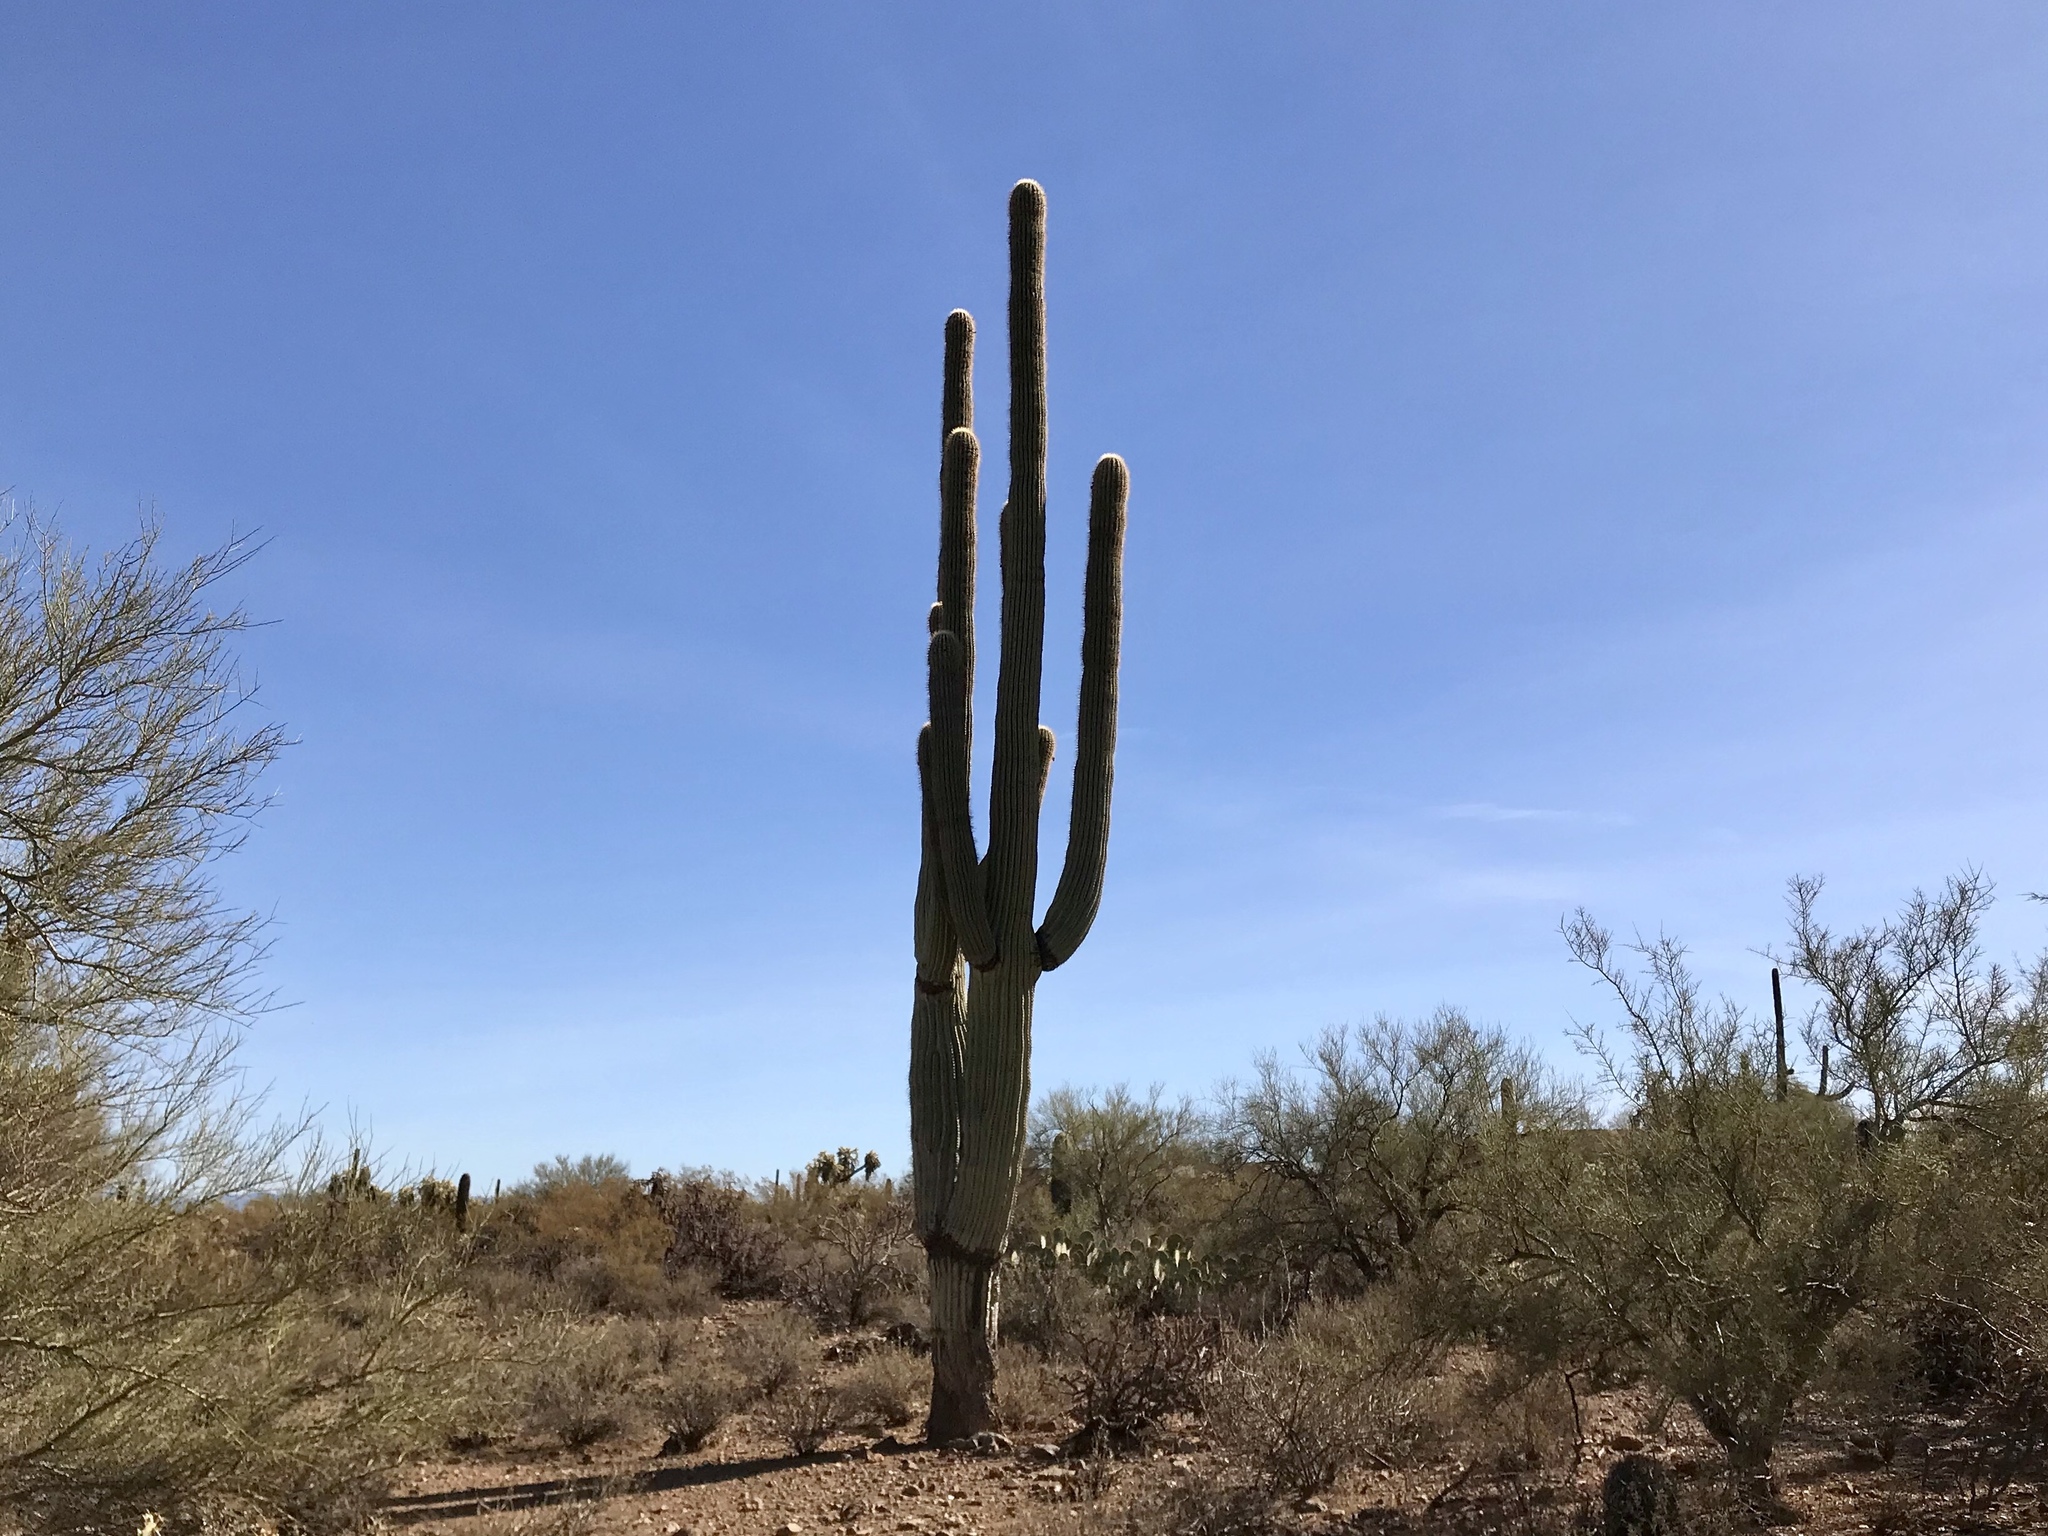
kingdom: Plantae
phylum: Tracheophyta
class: Magnoliopsida
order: Caryophyllales
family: Cactaceae
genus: Carnegiea
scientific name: Carnegiea gigantea
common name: Saguaro
